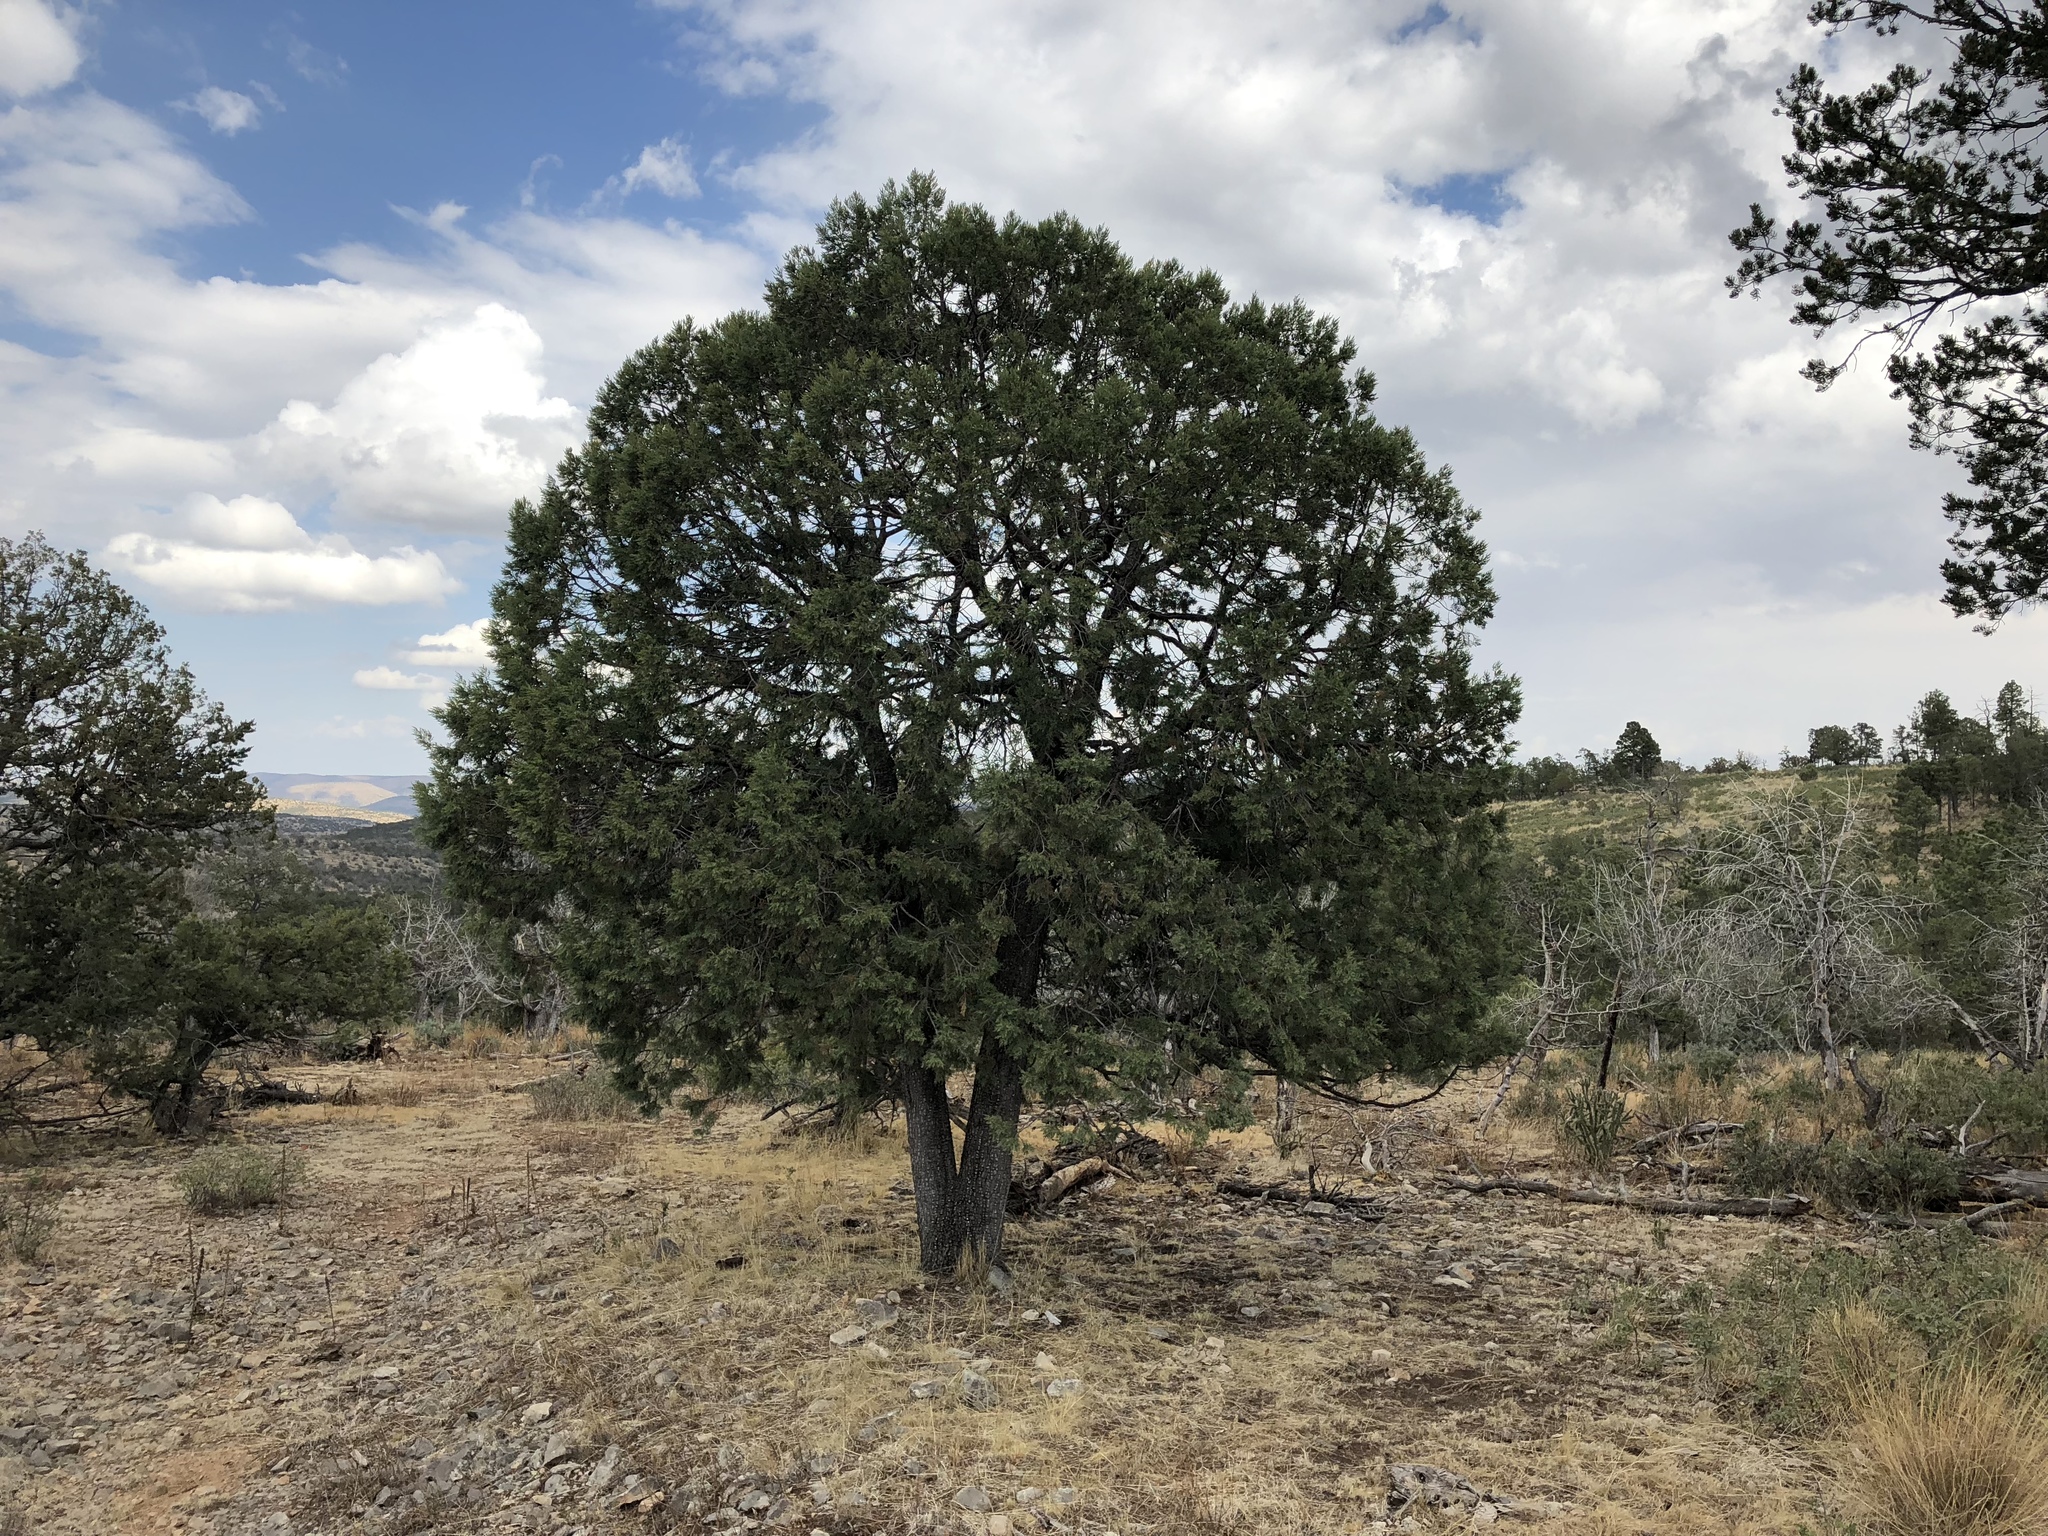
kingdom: Plantae
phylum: Tracheophyta
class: Pinopsida
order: Pinales
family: Cupressaceae
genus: Juniperus
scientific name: Juniperus deppeana
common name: Alligator juniper
